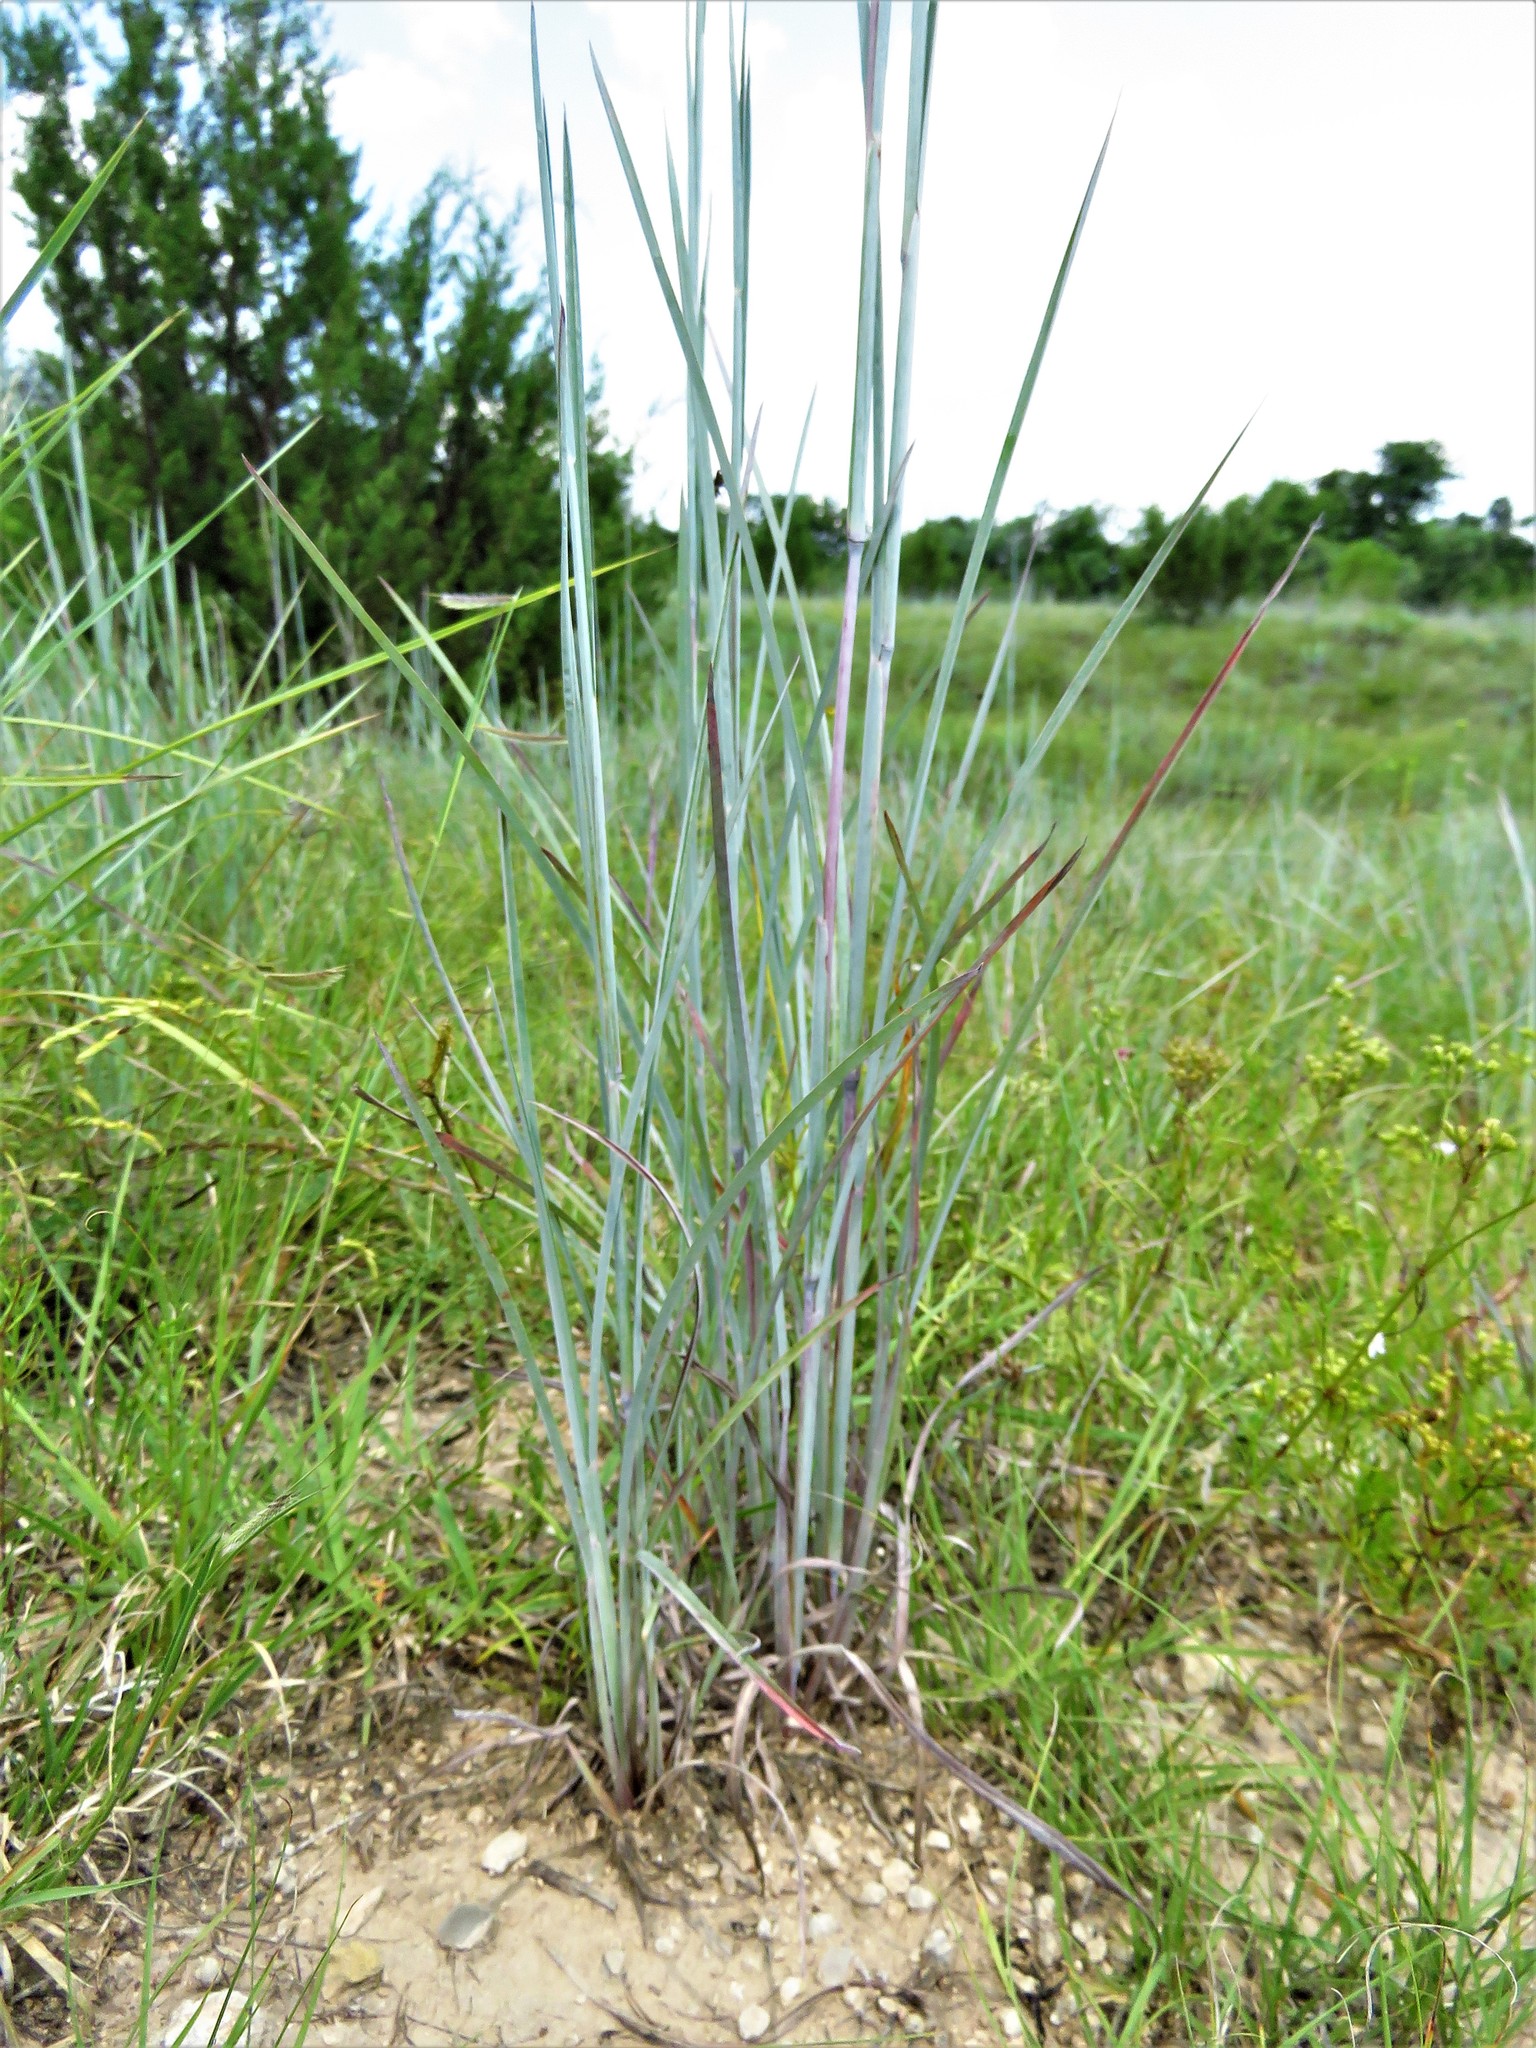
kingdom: Plantae
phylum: Tracheophyta
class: Liliopsida
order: Poales
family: Poaceae
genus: Schizachyrium
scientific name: Schizachyrium scoparium
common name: Little bluestem
